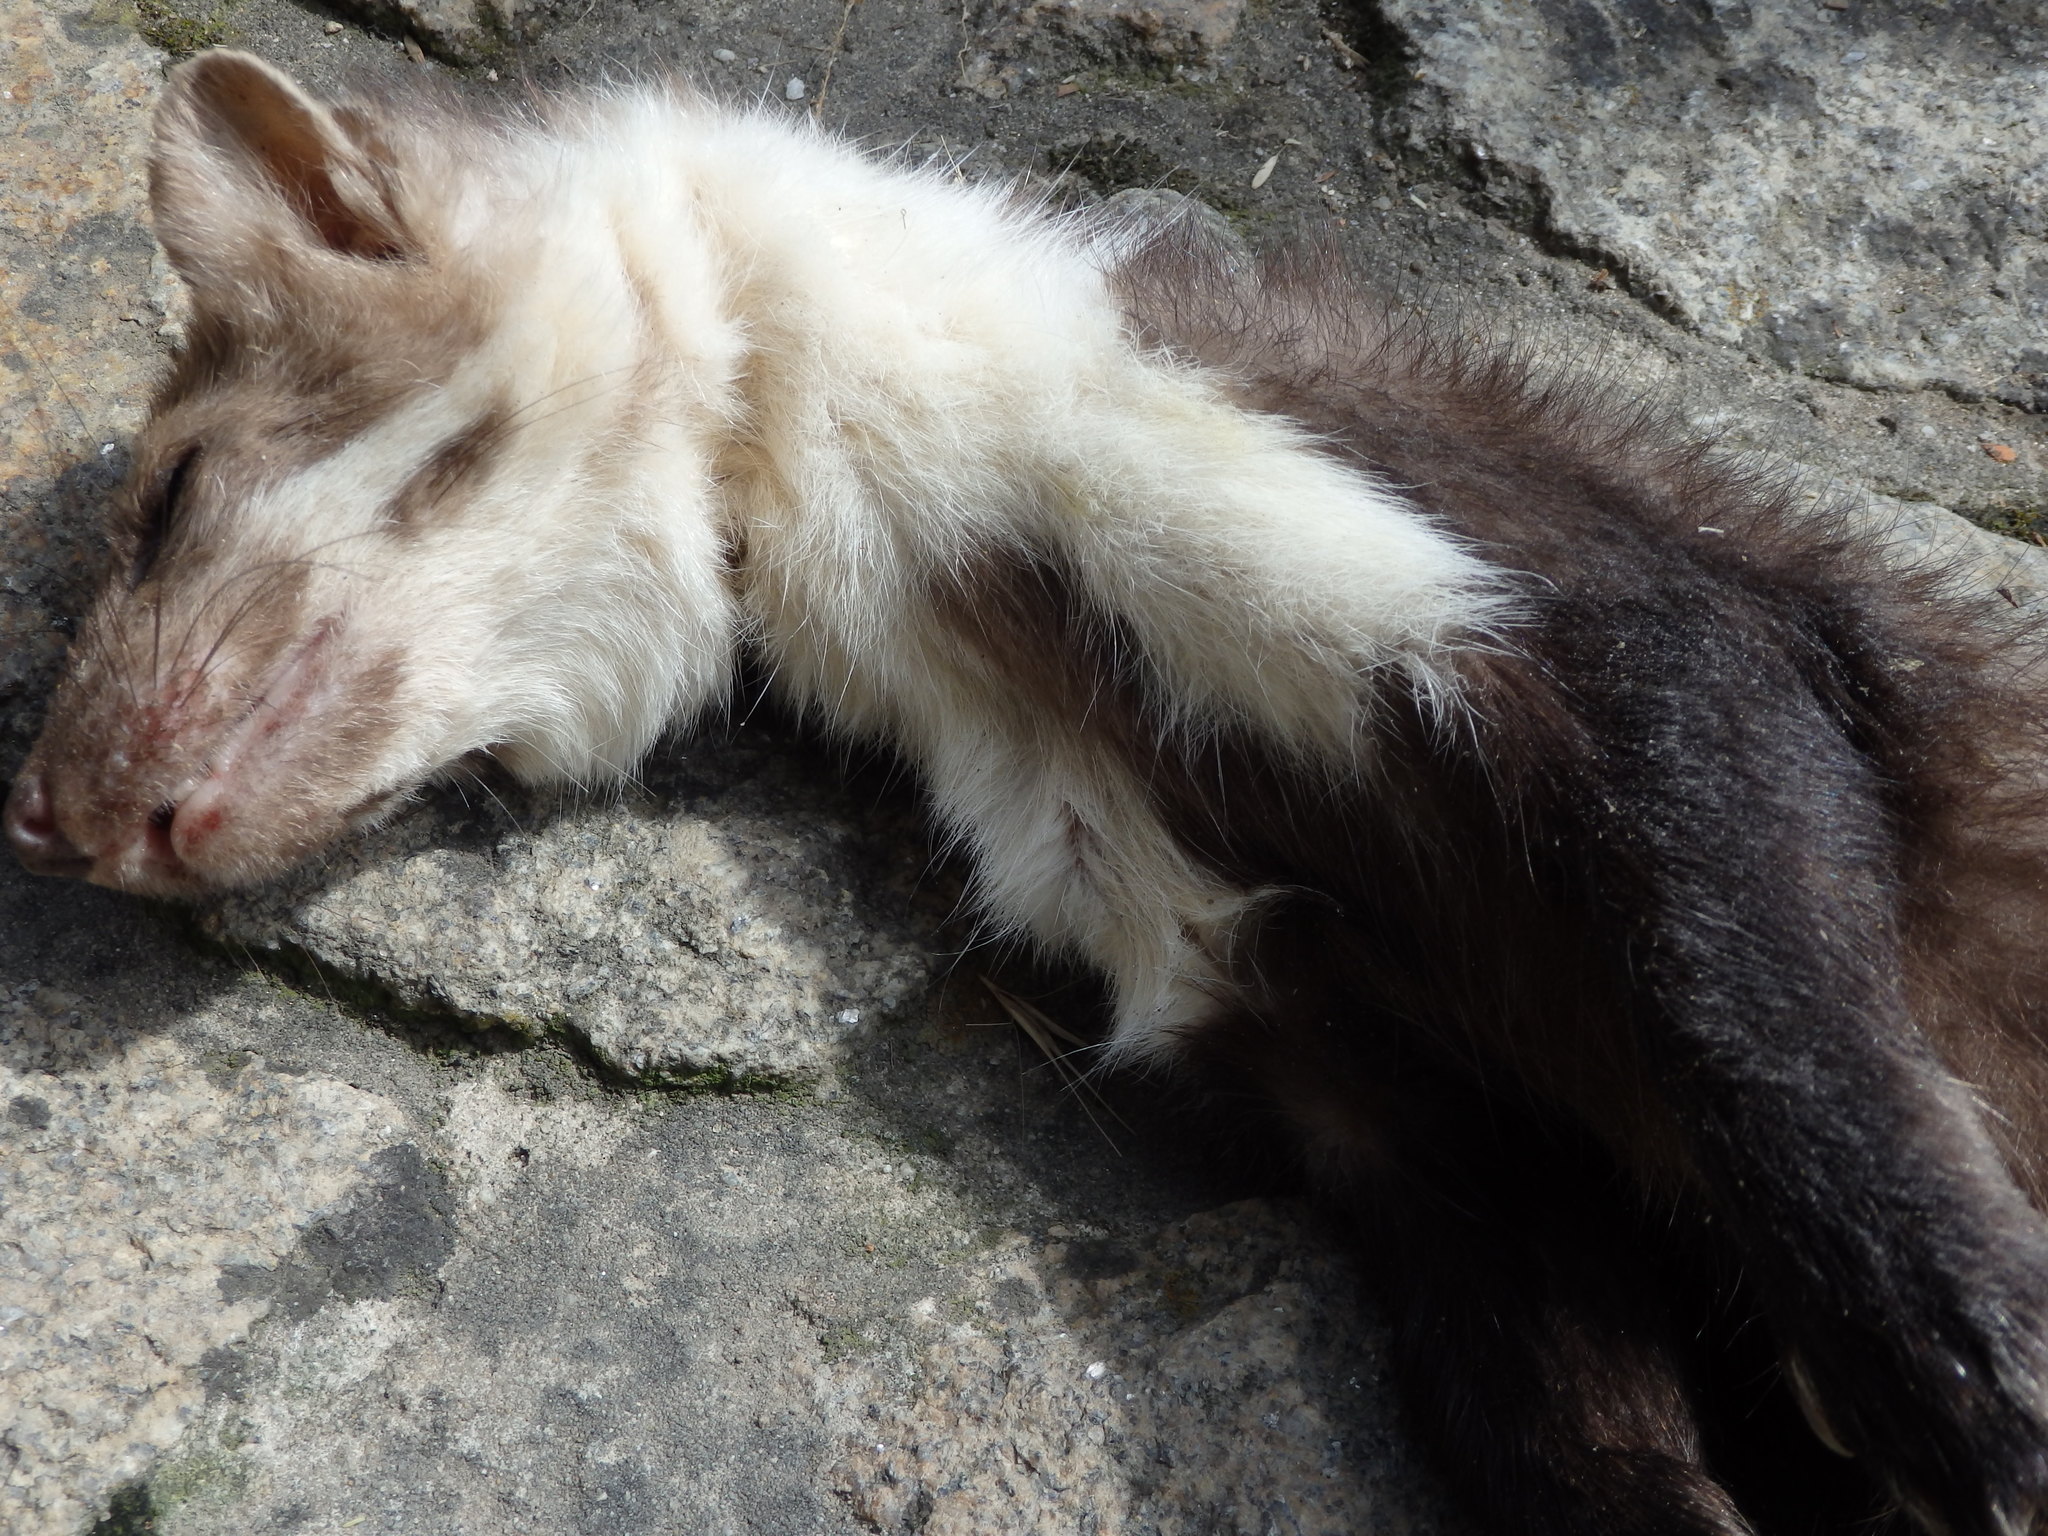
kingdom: Animalia
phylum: Chordata
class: Mammalia
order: Carnivora
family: Mustelidae
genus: Martes
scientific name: Martes foina
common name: Beech marten
